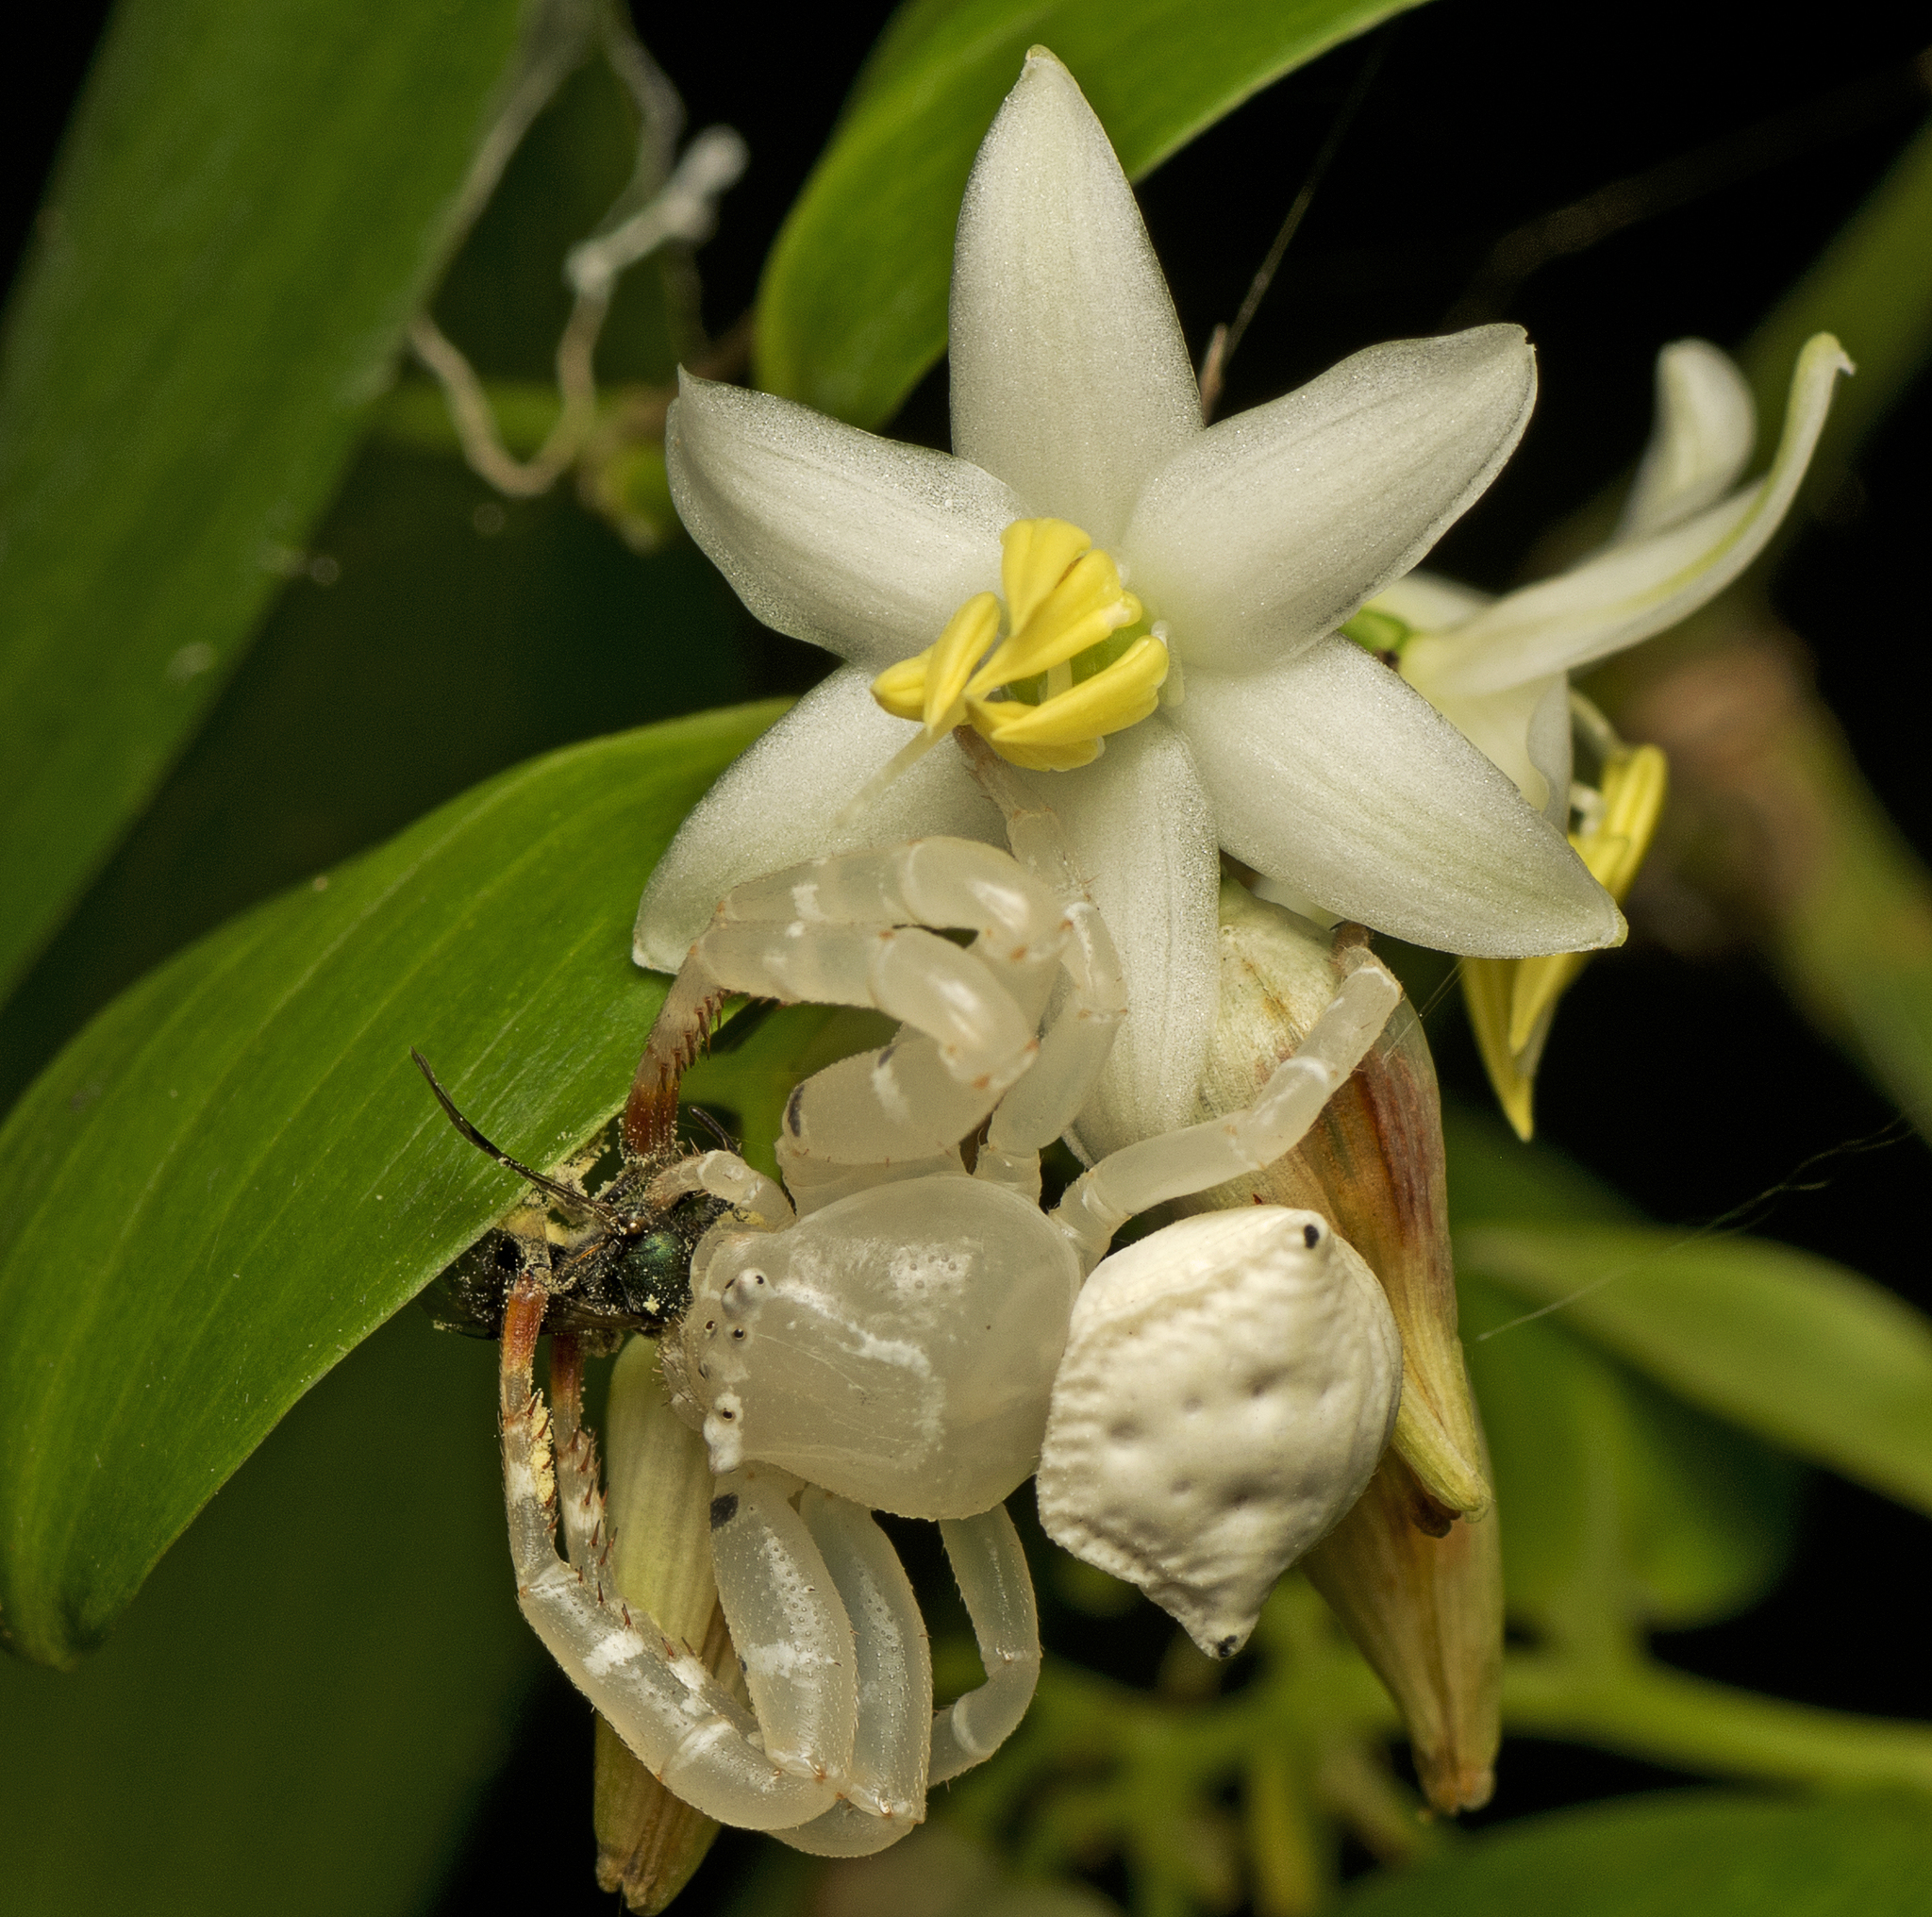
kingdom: Animalia
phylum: Arthropoda
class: Arachnida
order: Araneae
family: Thomisidae
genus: Thomisus
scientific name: Thomisus spectabilis
